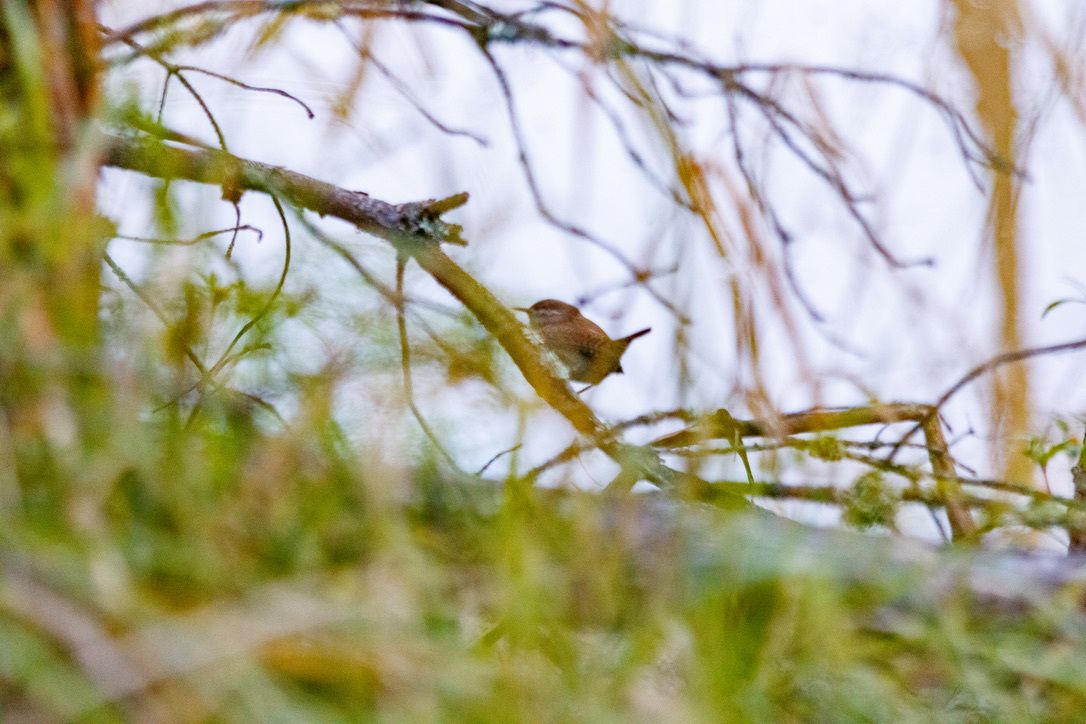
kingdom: Animalia
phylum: Chordata
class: Aves
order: Passeriformes
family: Troglodytidae
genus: Troglodytes
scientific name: Troglodytes troglodytes
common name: Eurasian wren
